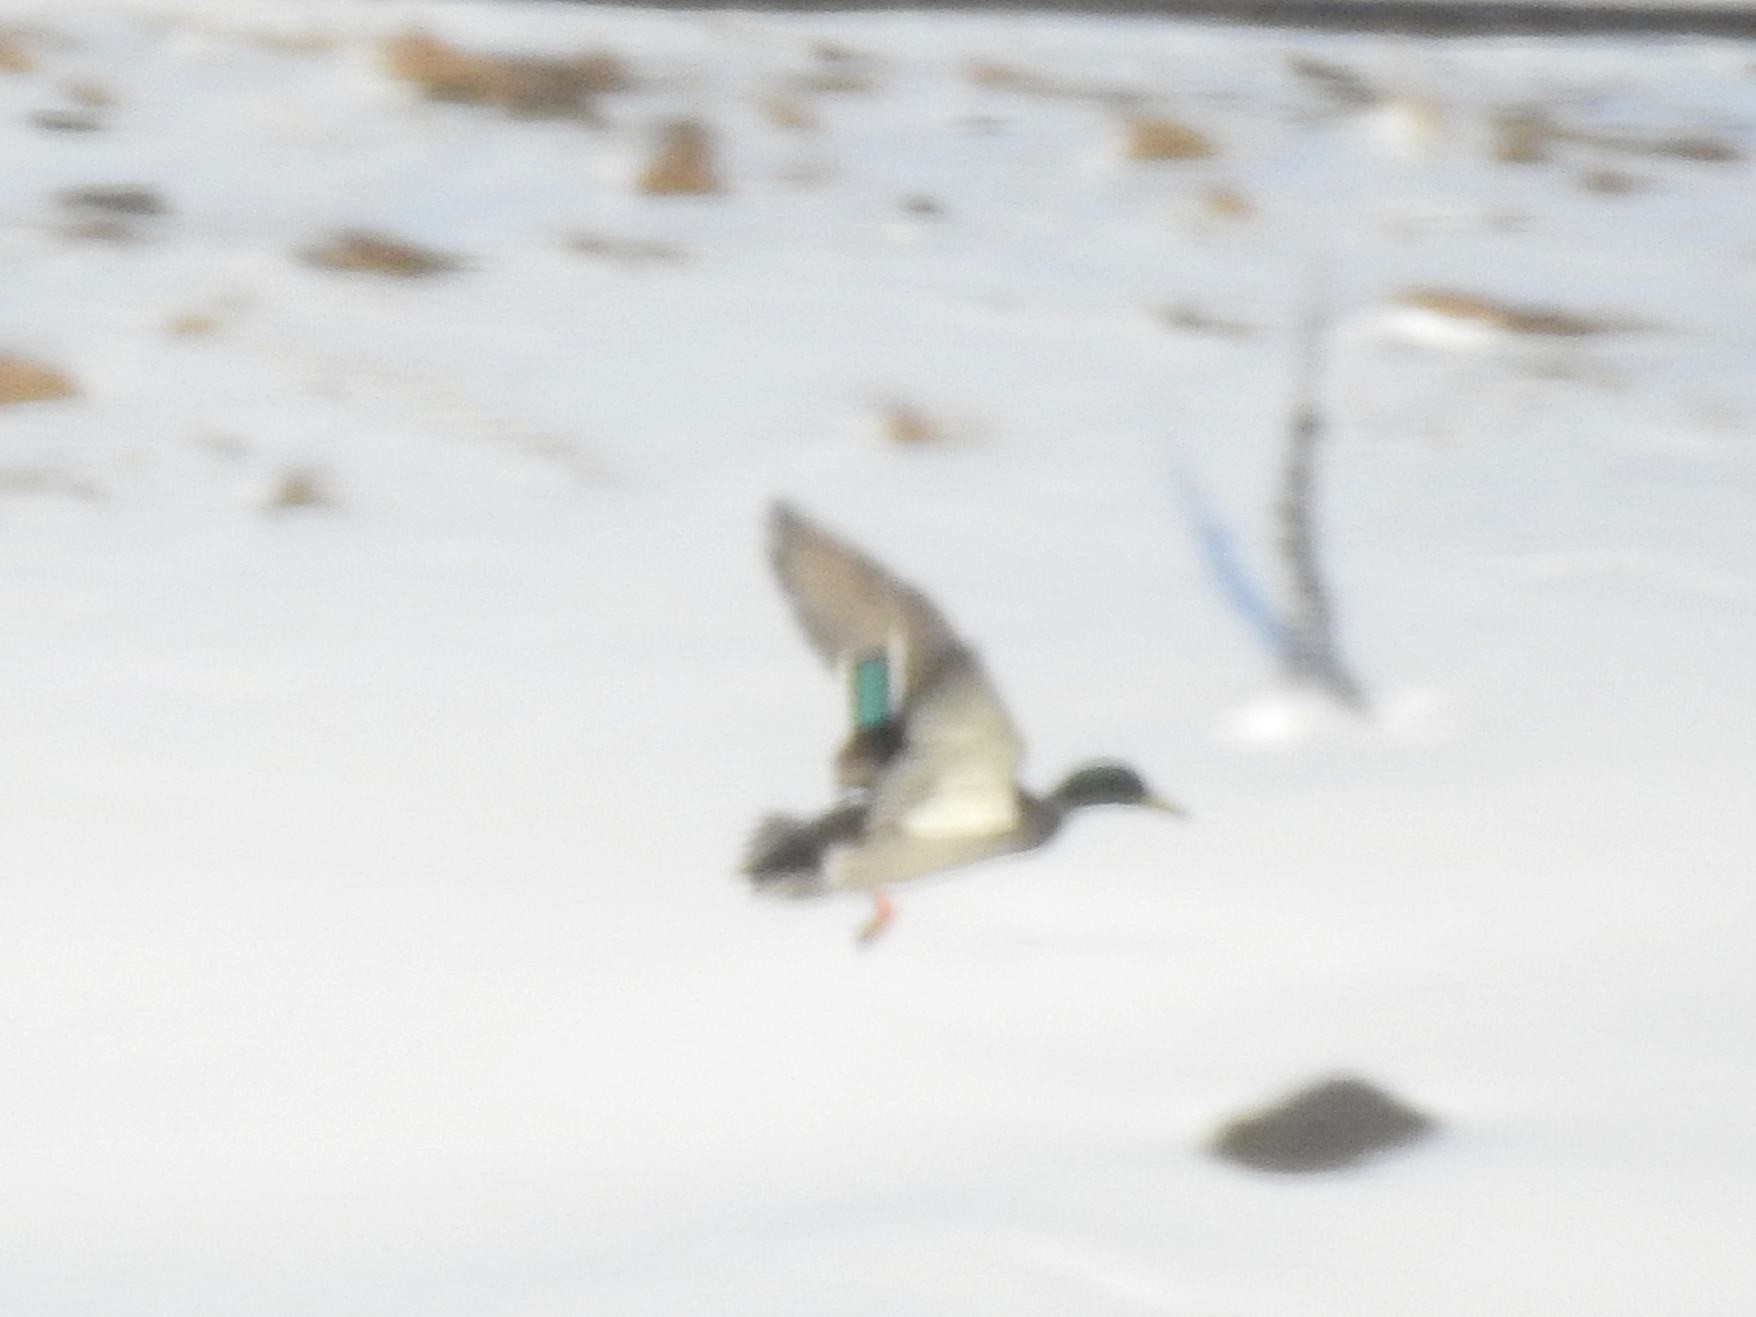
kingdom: Animalia
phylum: Chordata
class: Aves
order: Anseriformes
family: Anatidae
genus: Anas
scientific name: Anas platyrhynchos
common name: Mallard
